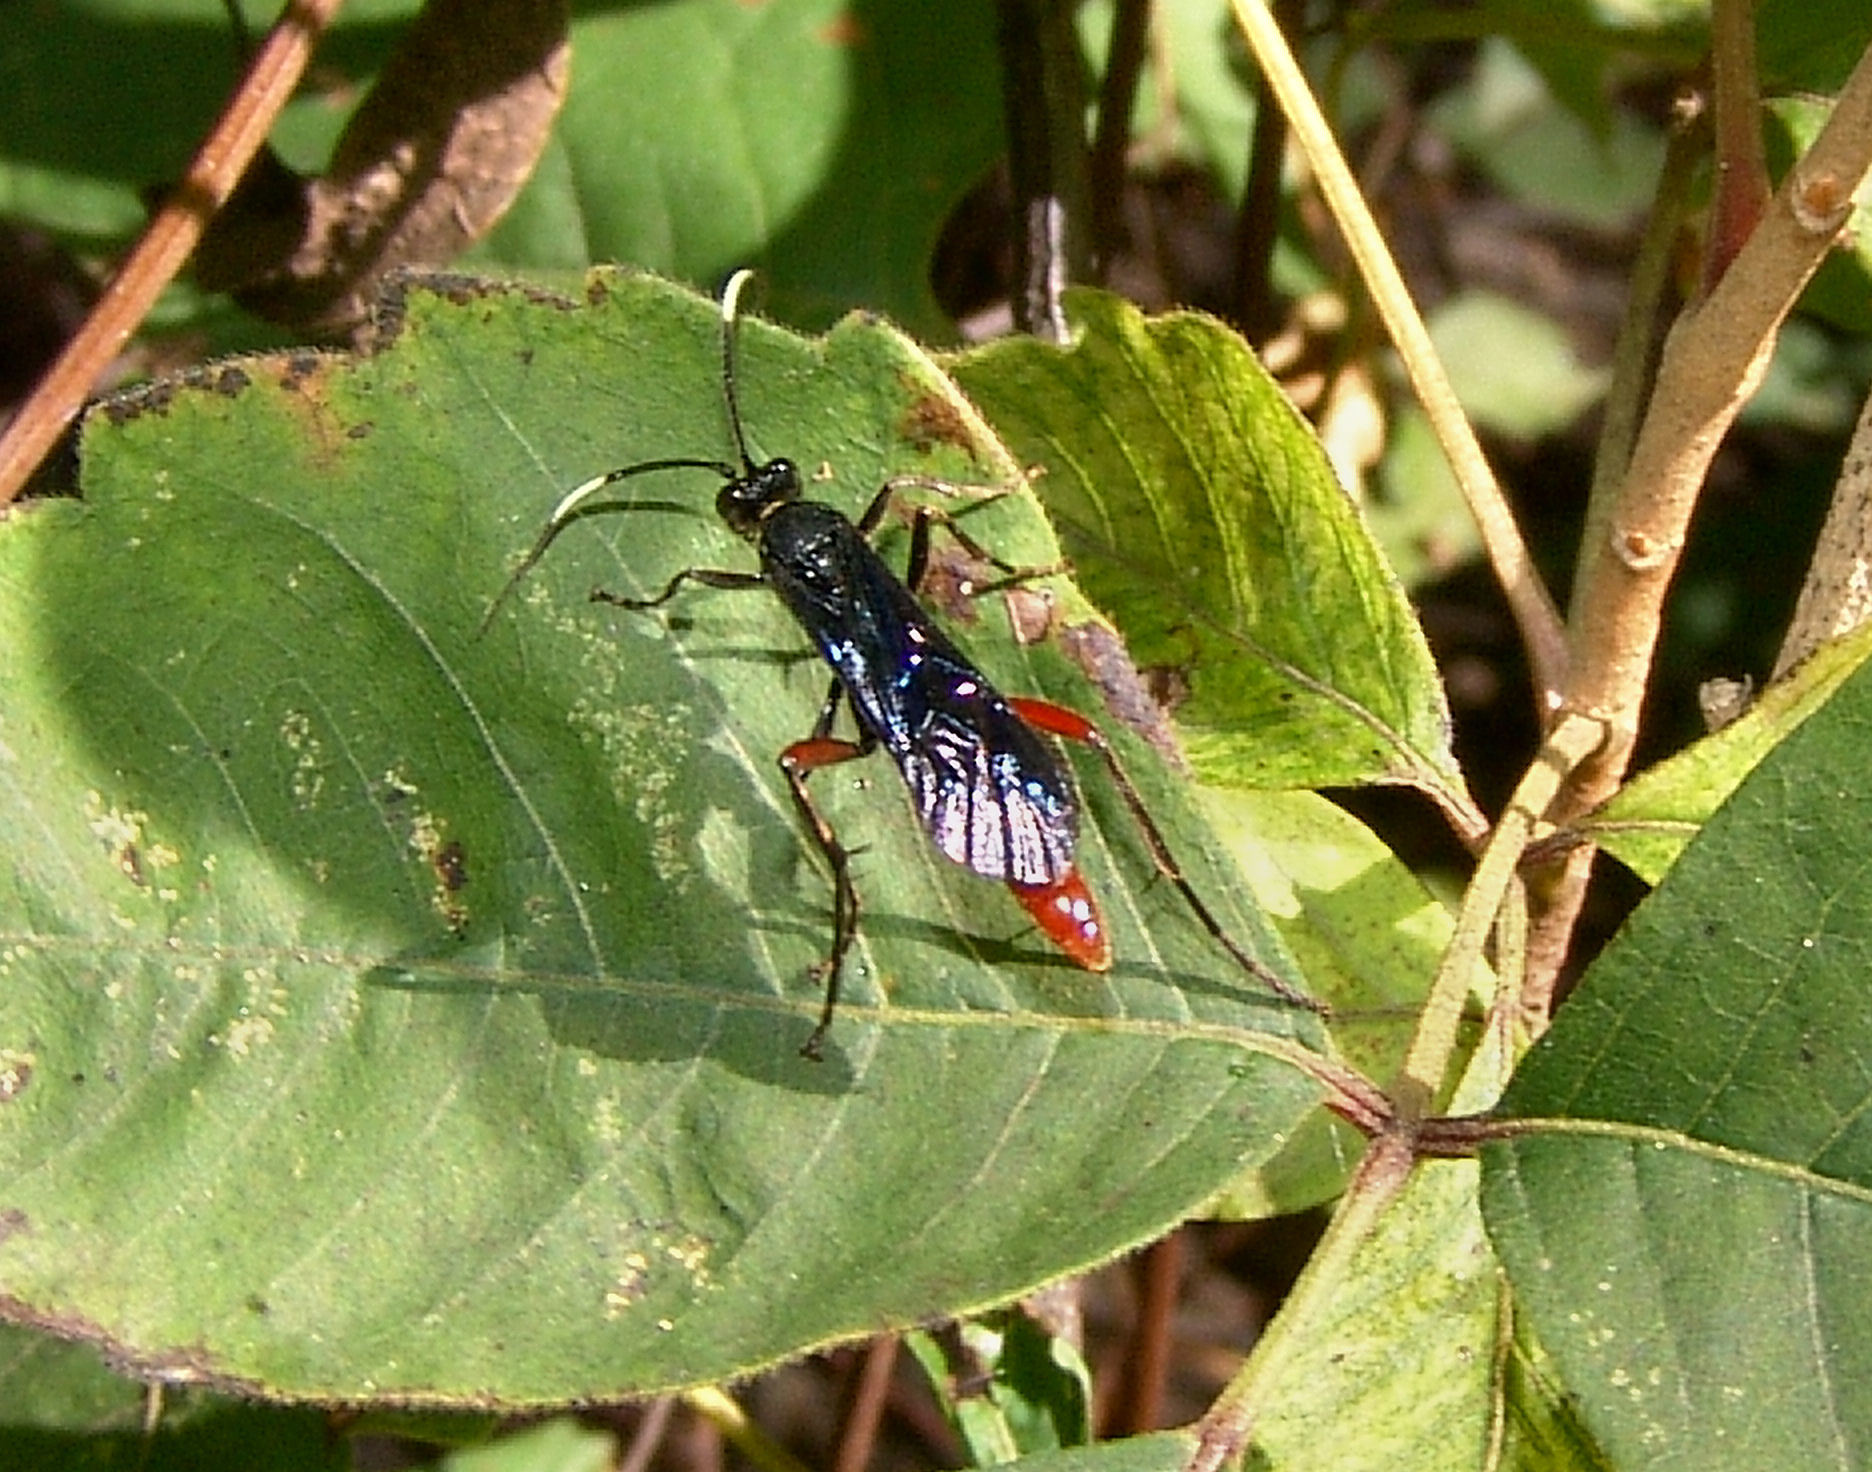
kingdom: Animalia
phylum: Arthropoda
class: Insecta
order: Hymenoptera
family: Ichneumonidae
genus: Limonethe
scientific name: Limonethe maurator
